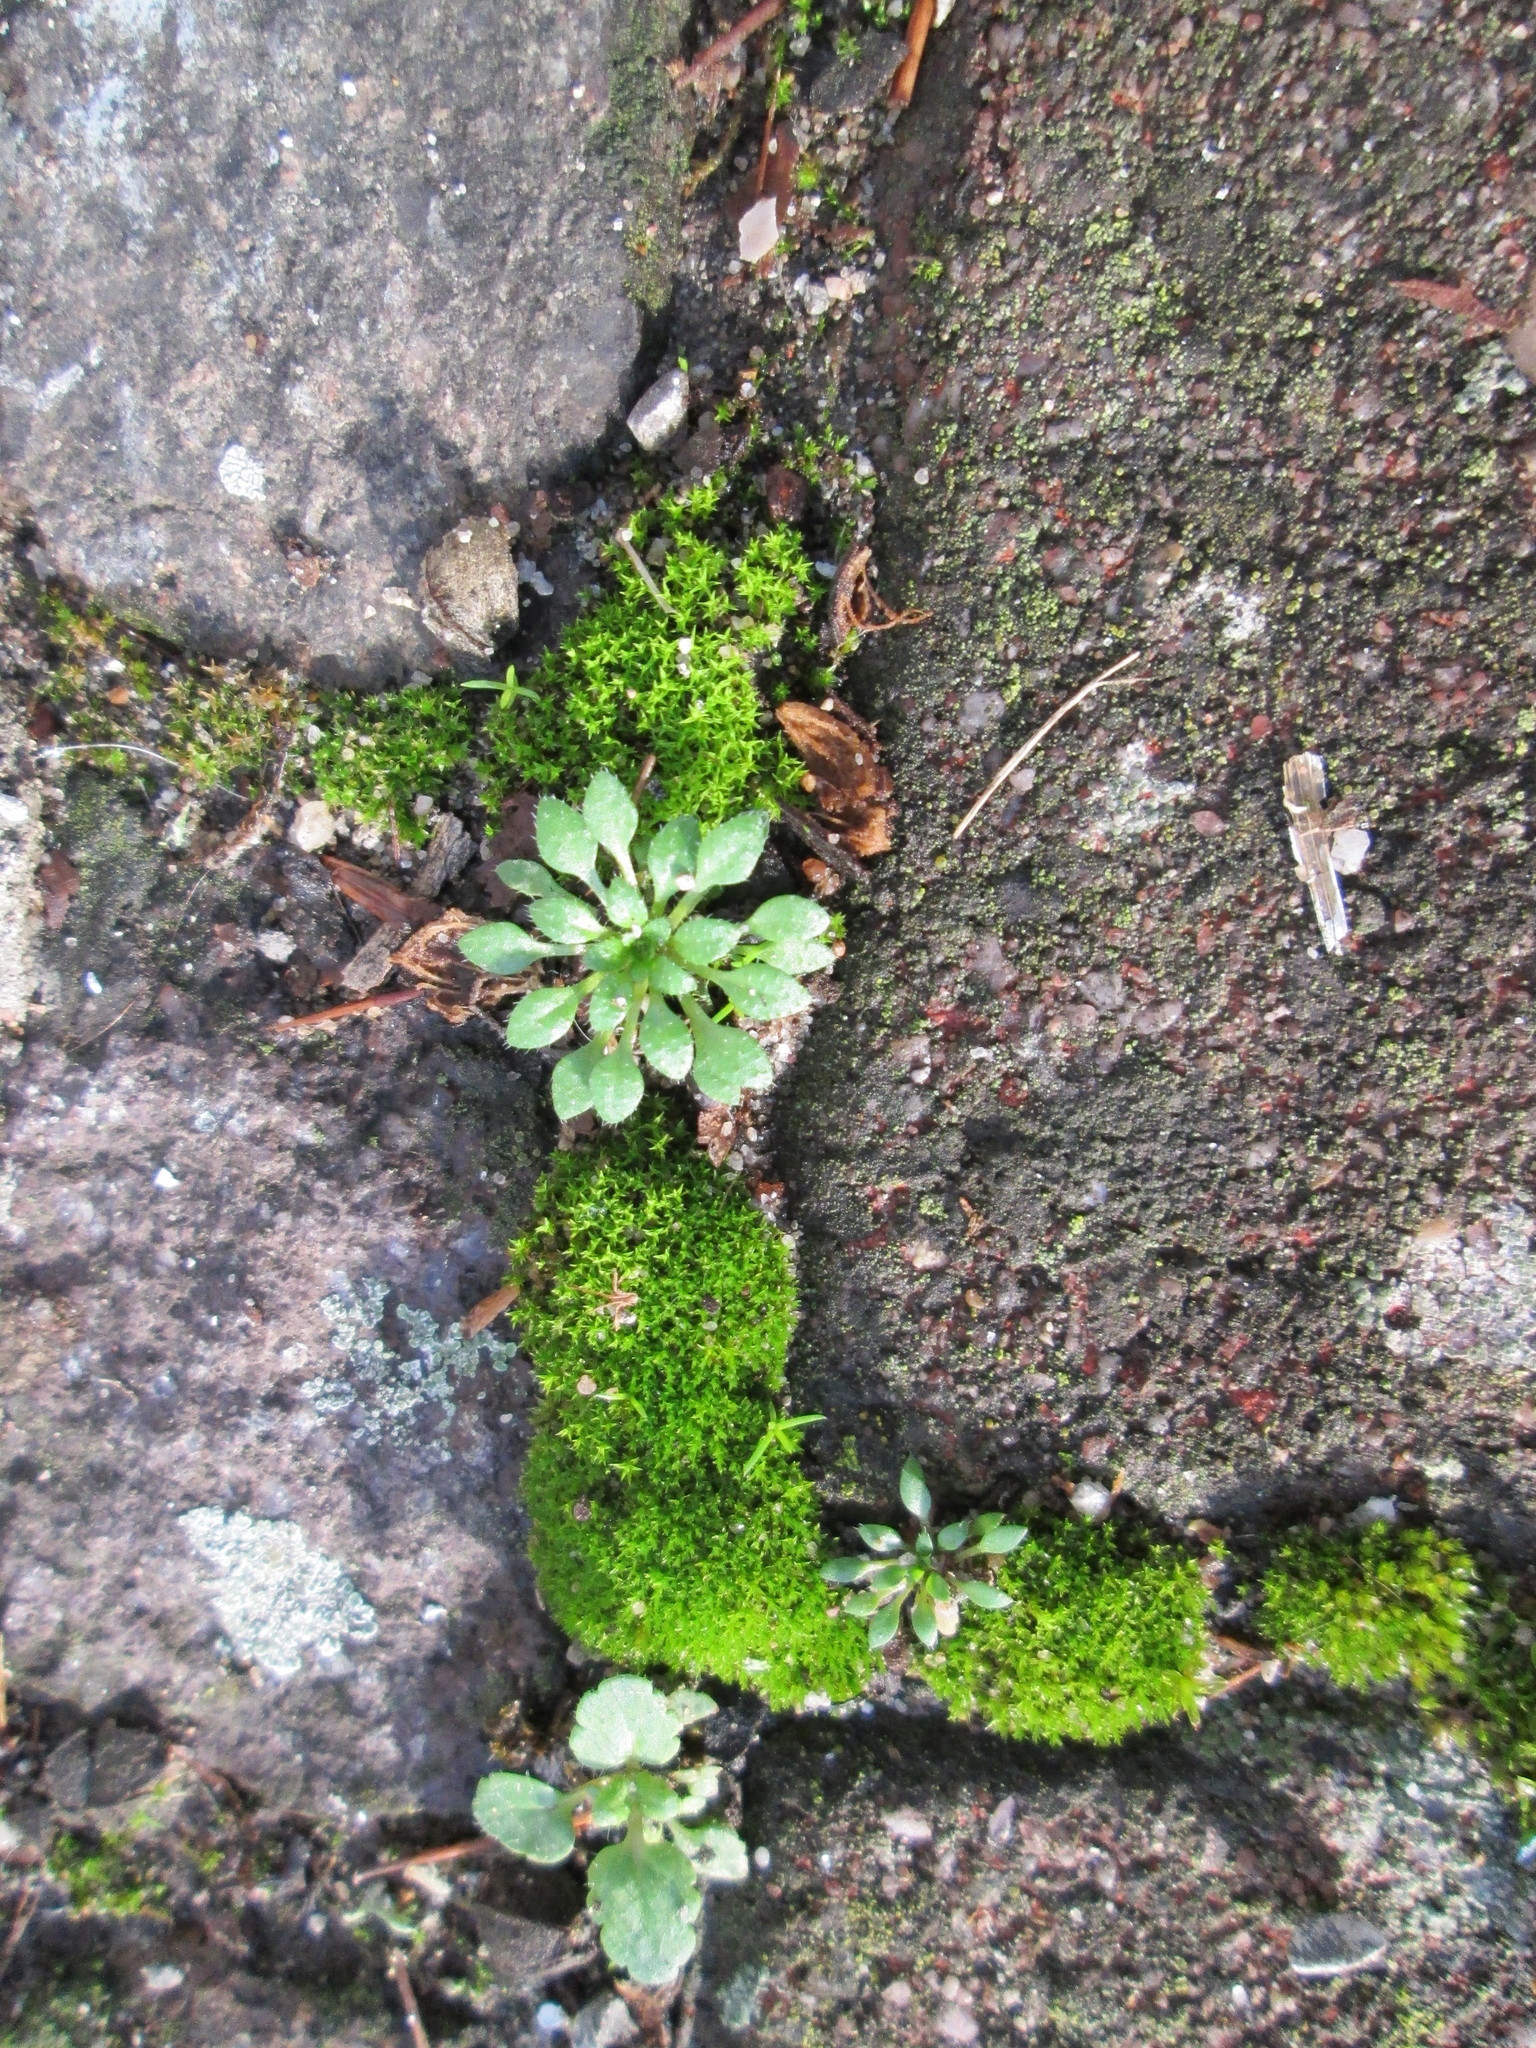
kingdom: Plantae
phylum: Tracheophyta
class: Magnoliopsida
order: Brassicales
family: Brassicaceae
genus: Draba
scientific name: Draba verna
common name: Spring draba
